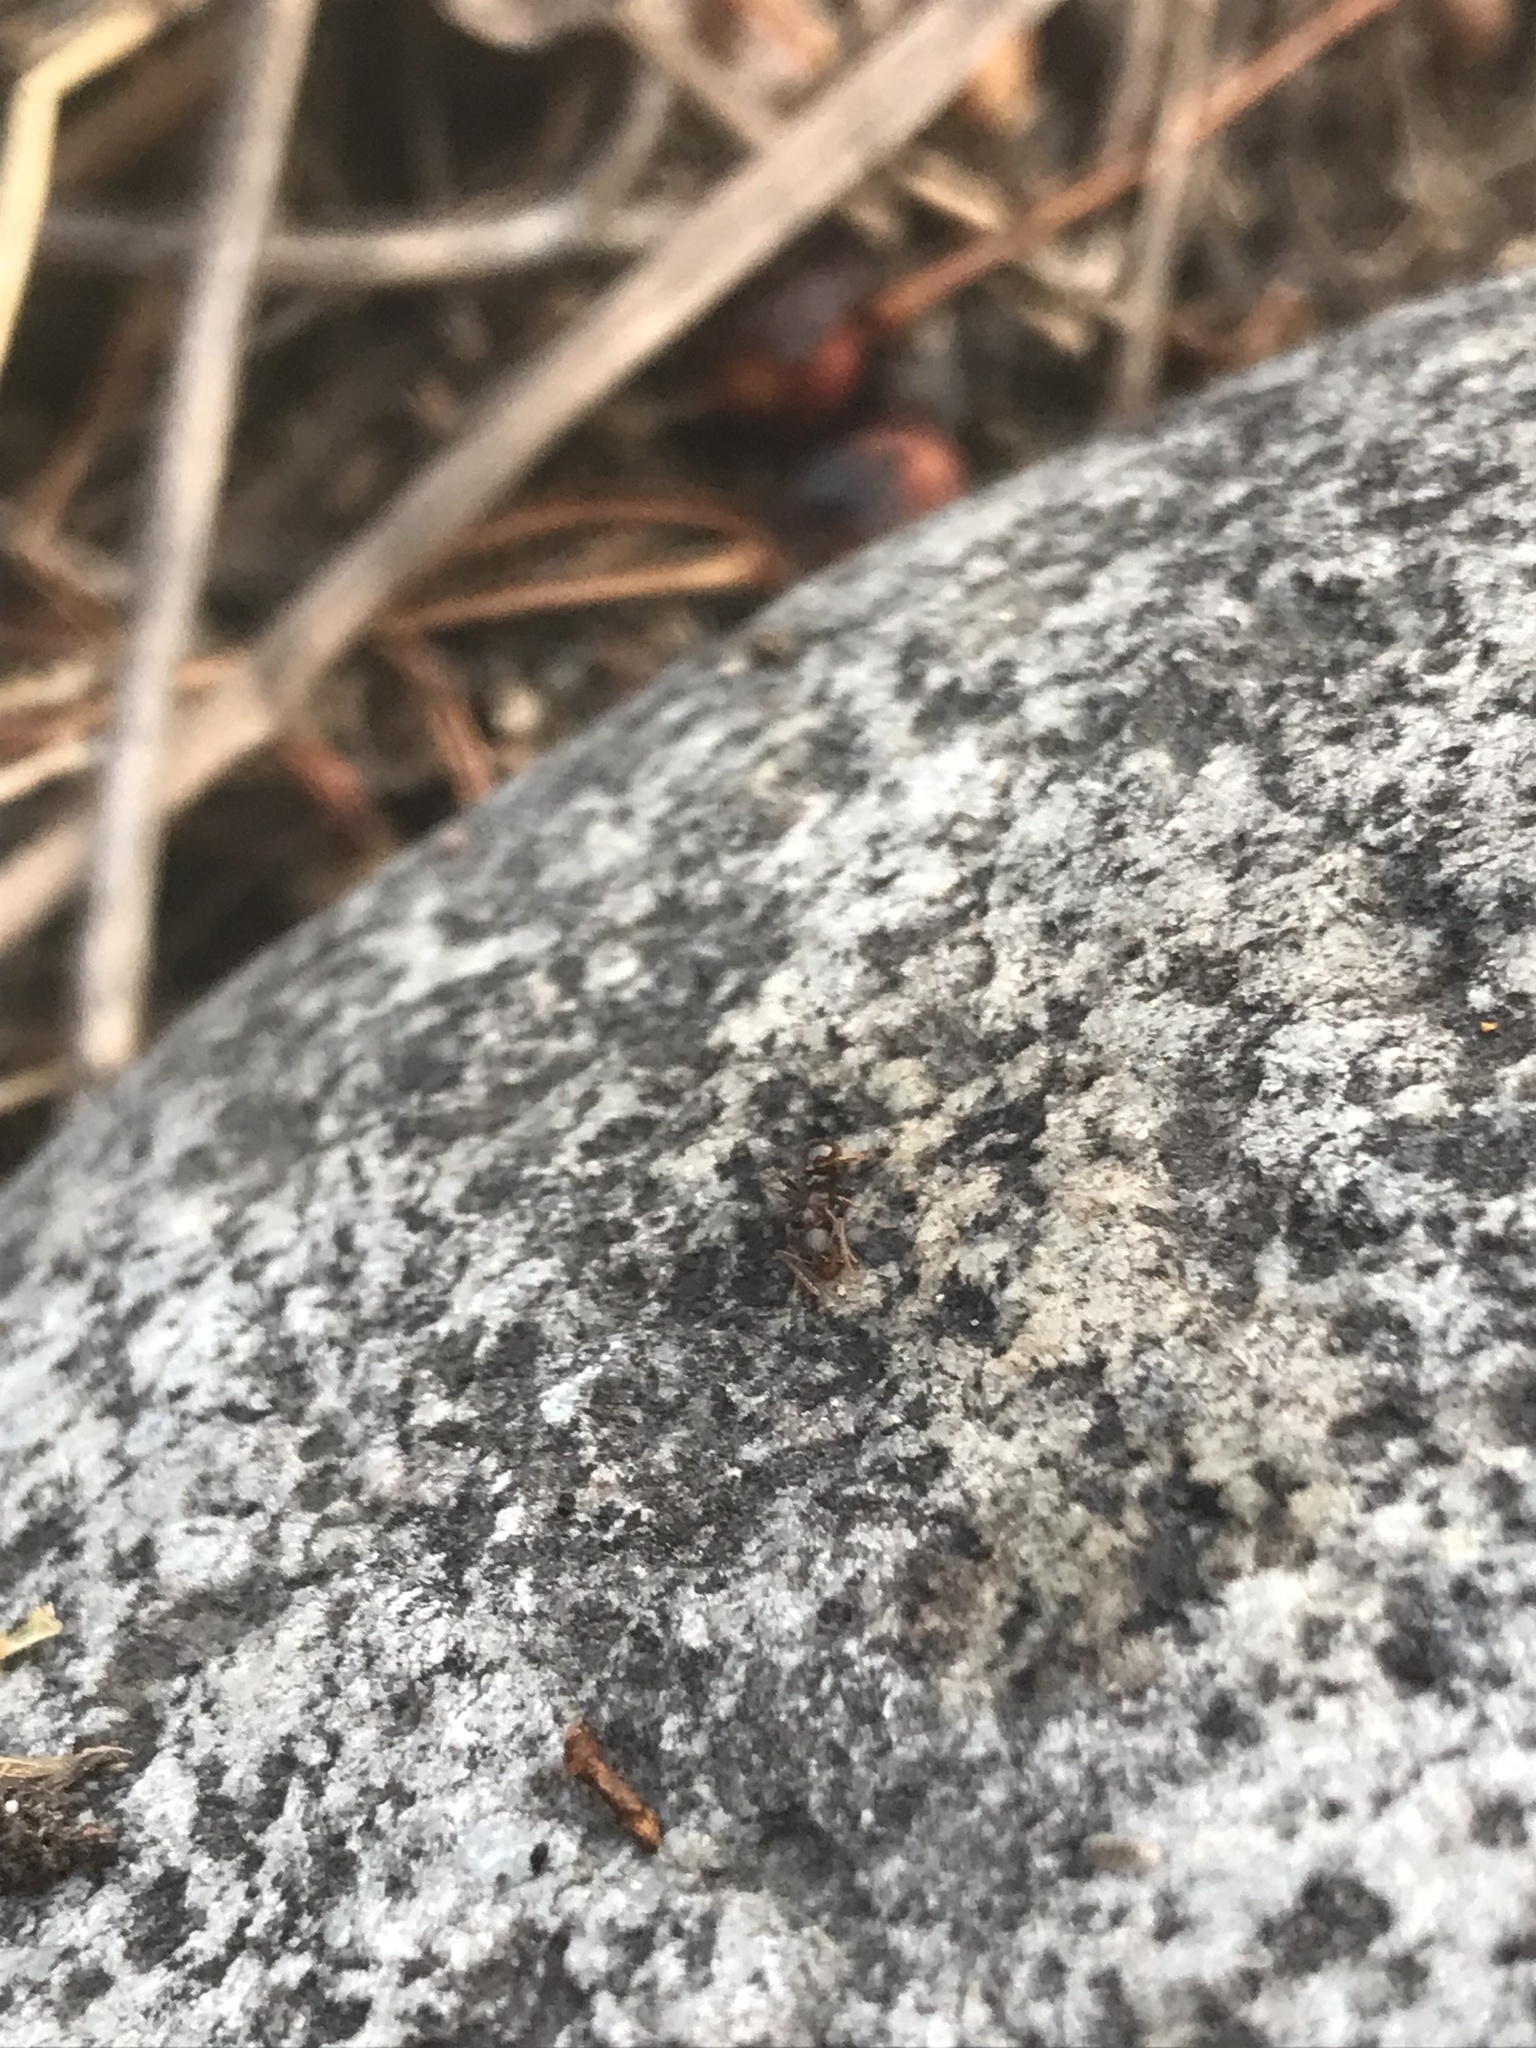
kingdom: Animalia
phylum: Arthropoda
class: Insecta
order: Hymenoptera
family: Formicidae
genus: Aphaenogaster
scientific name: Aphaenogaster occidentalis
